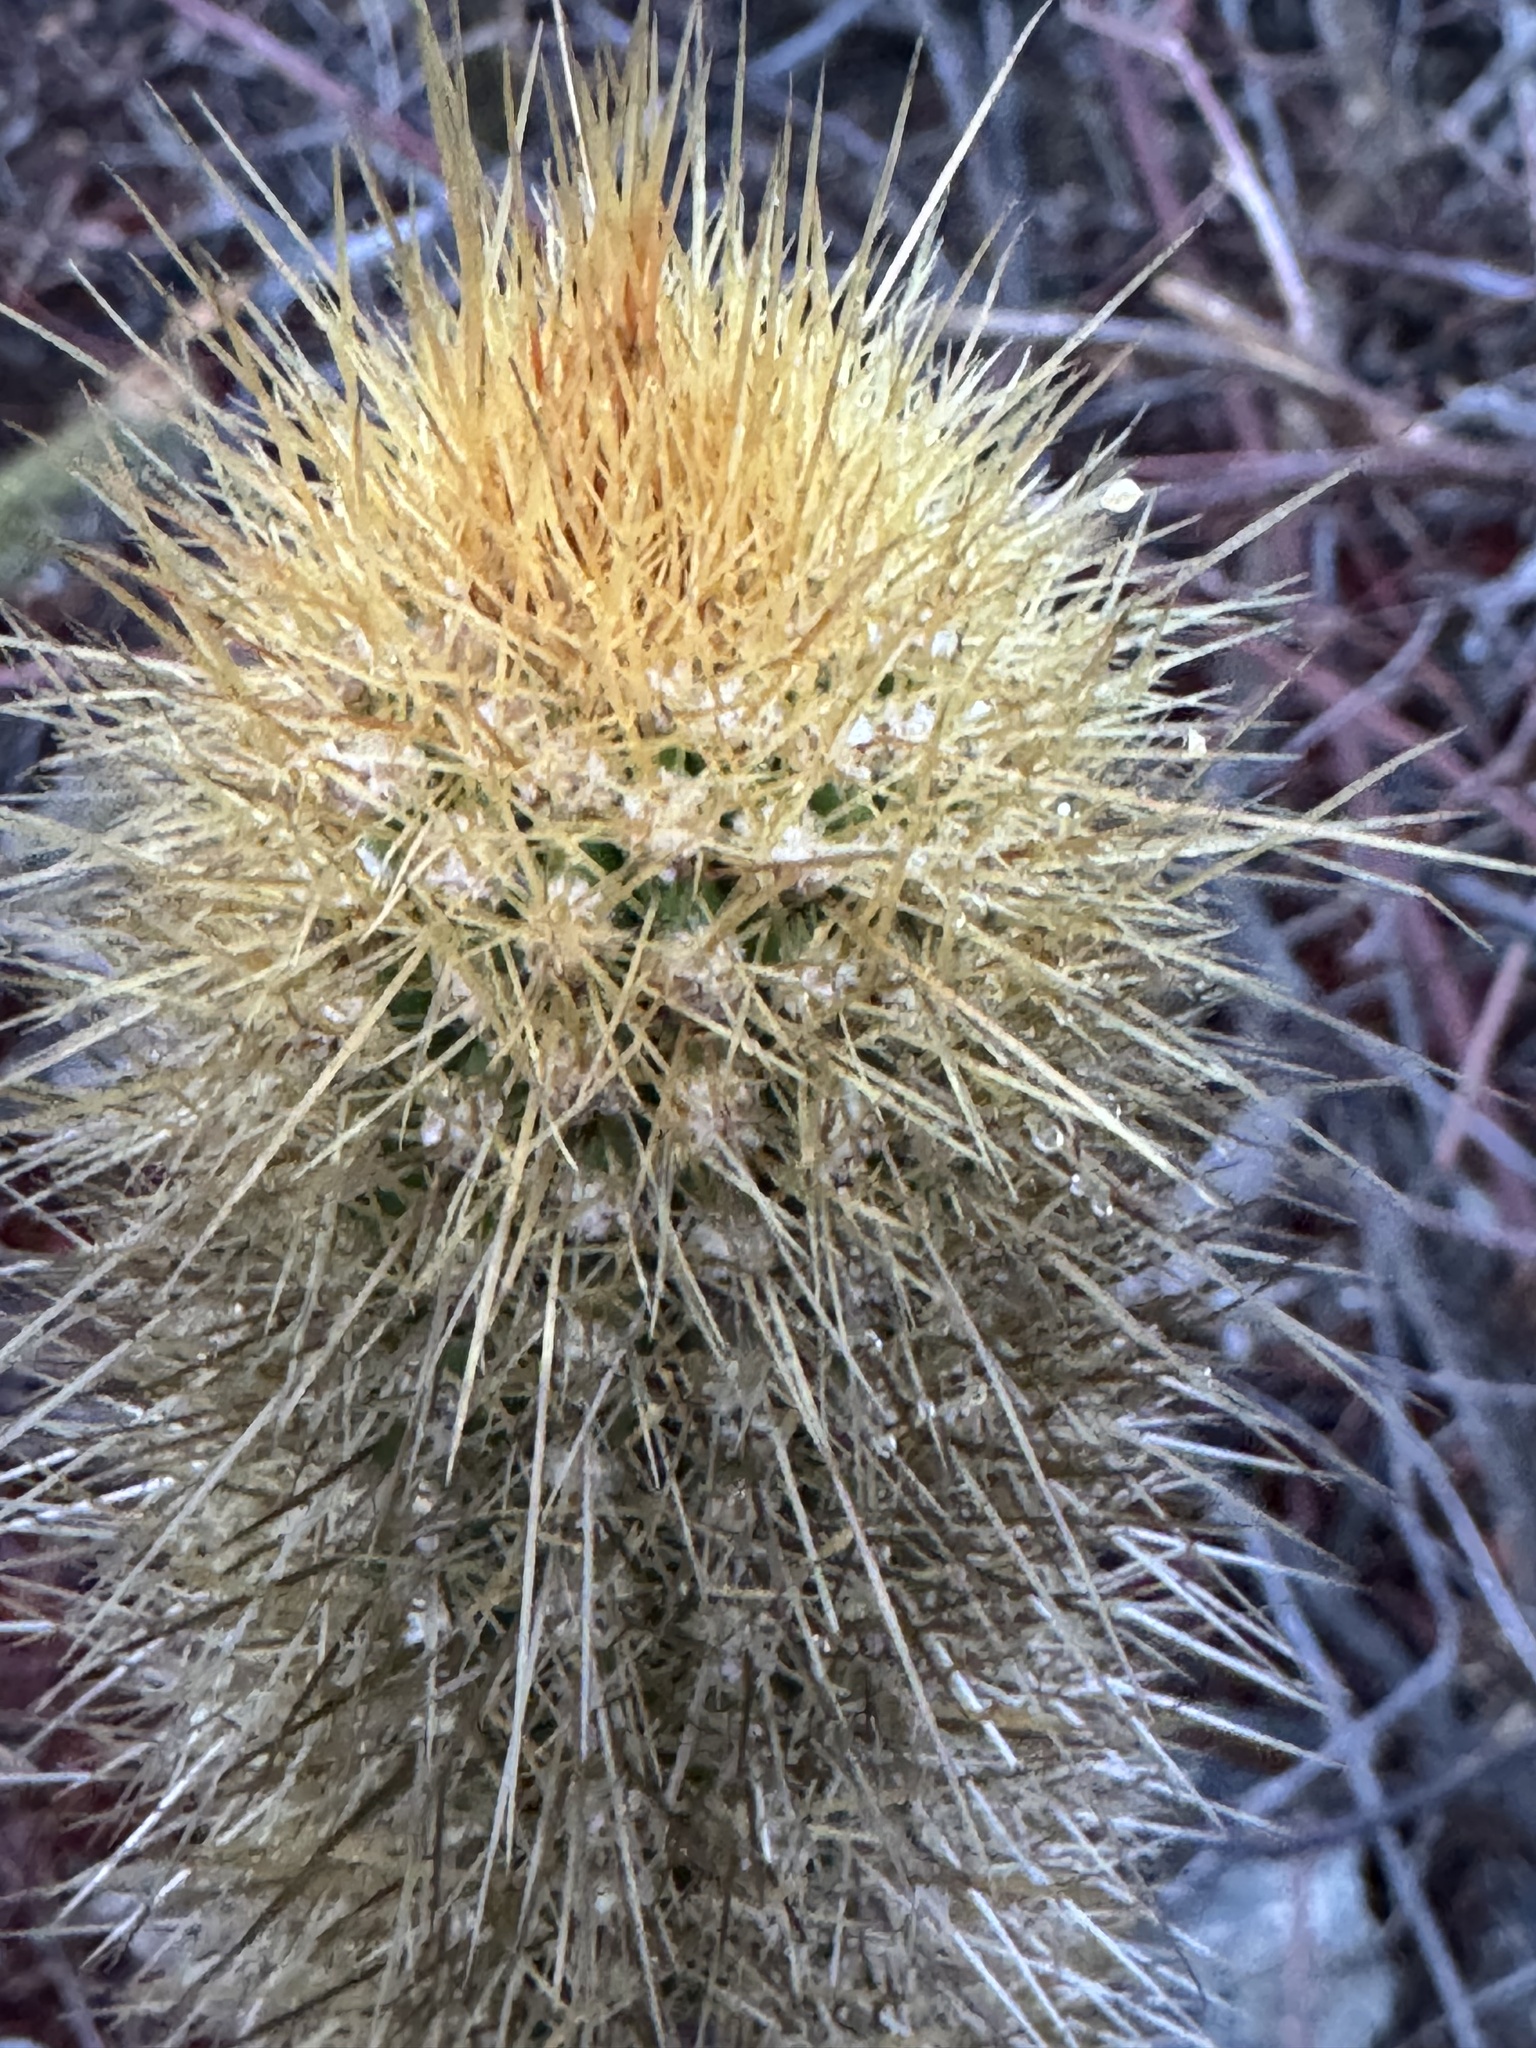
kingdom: Plantae
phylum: Tracheophyta
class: Magnoliopsida
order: Caryophyllales
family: Cactaceae
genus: Pilosocereus
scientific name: Pilosocereus piauhyensis
